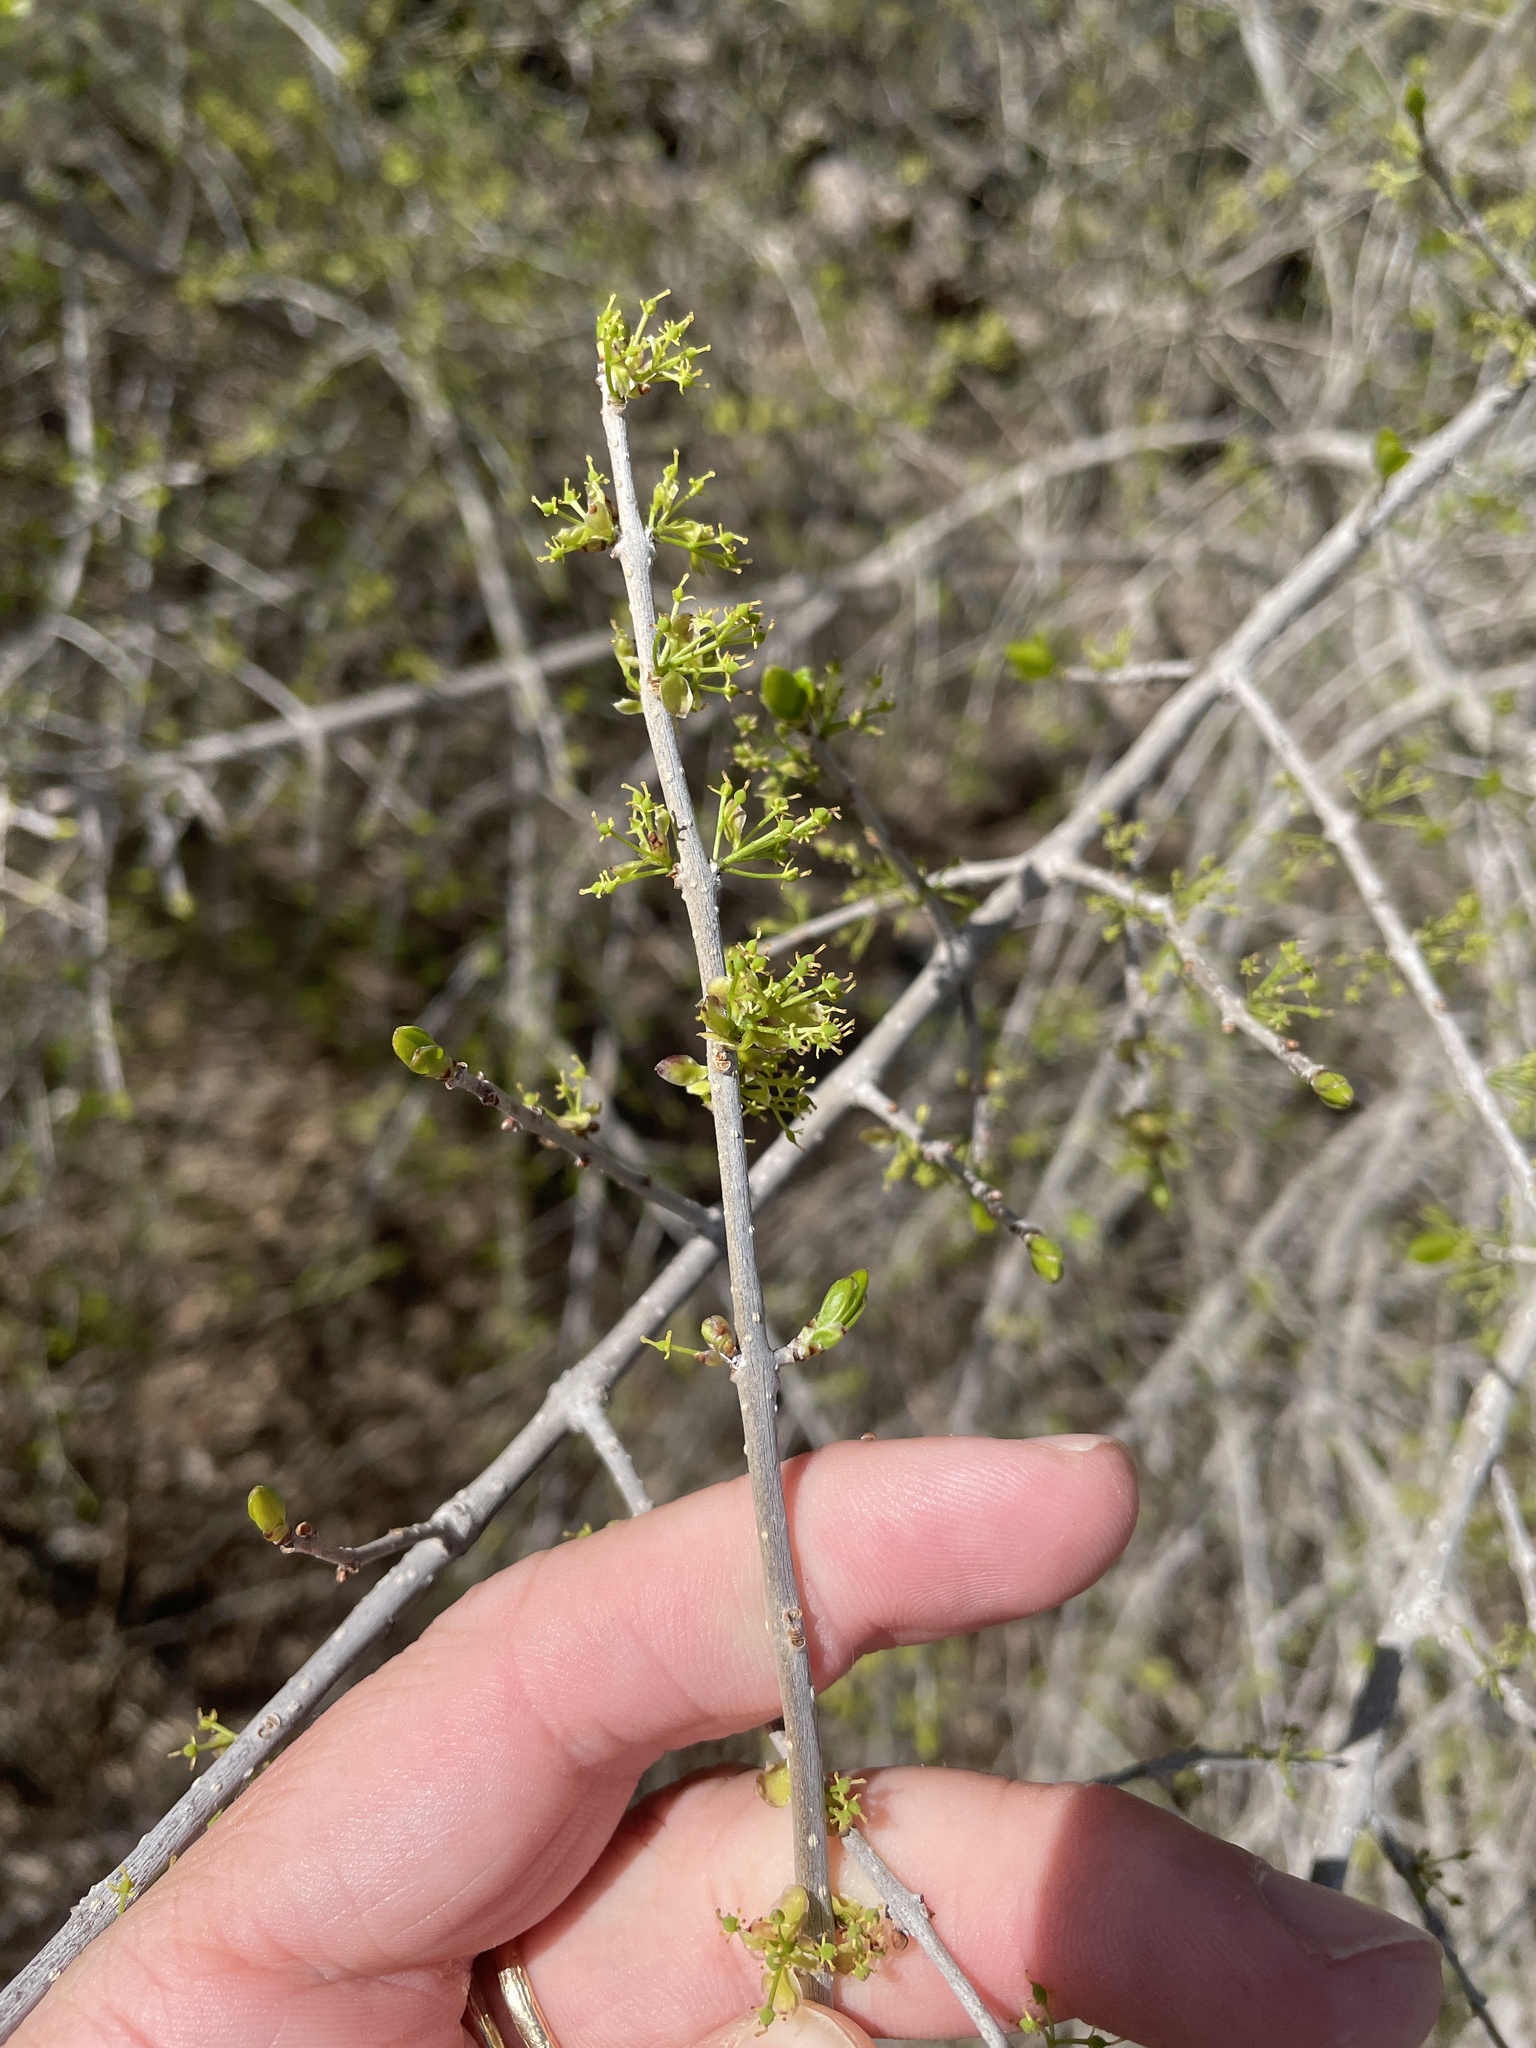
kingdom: Plantae
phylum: Tracheophyta
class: Magnoliopsida
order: Lamiales
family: Oleaceae
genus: Forestiera
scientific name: Forestiera pubescens
